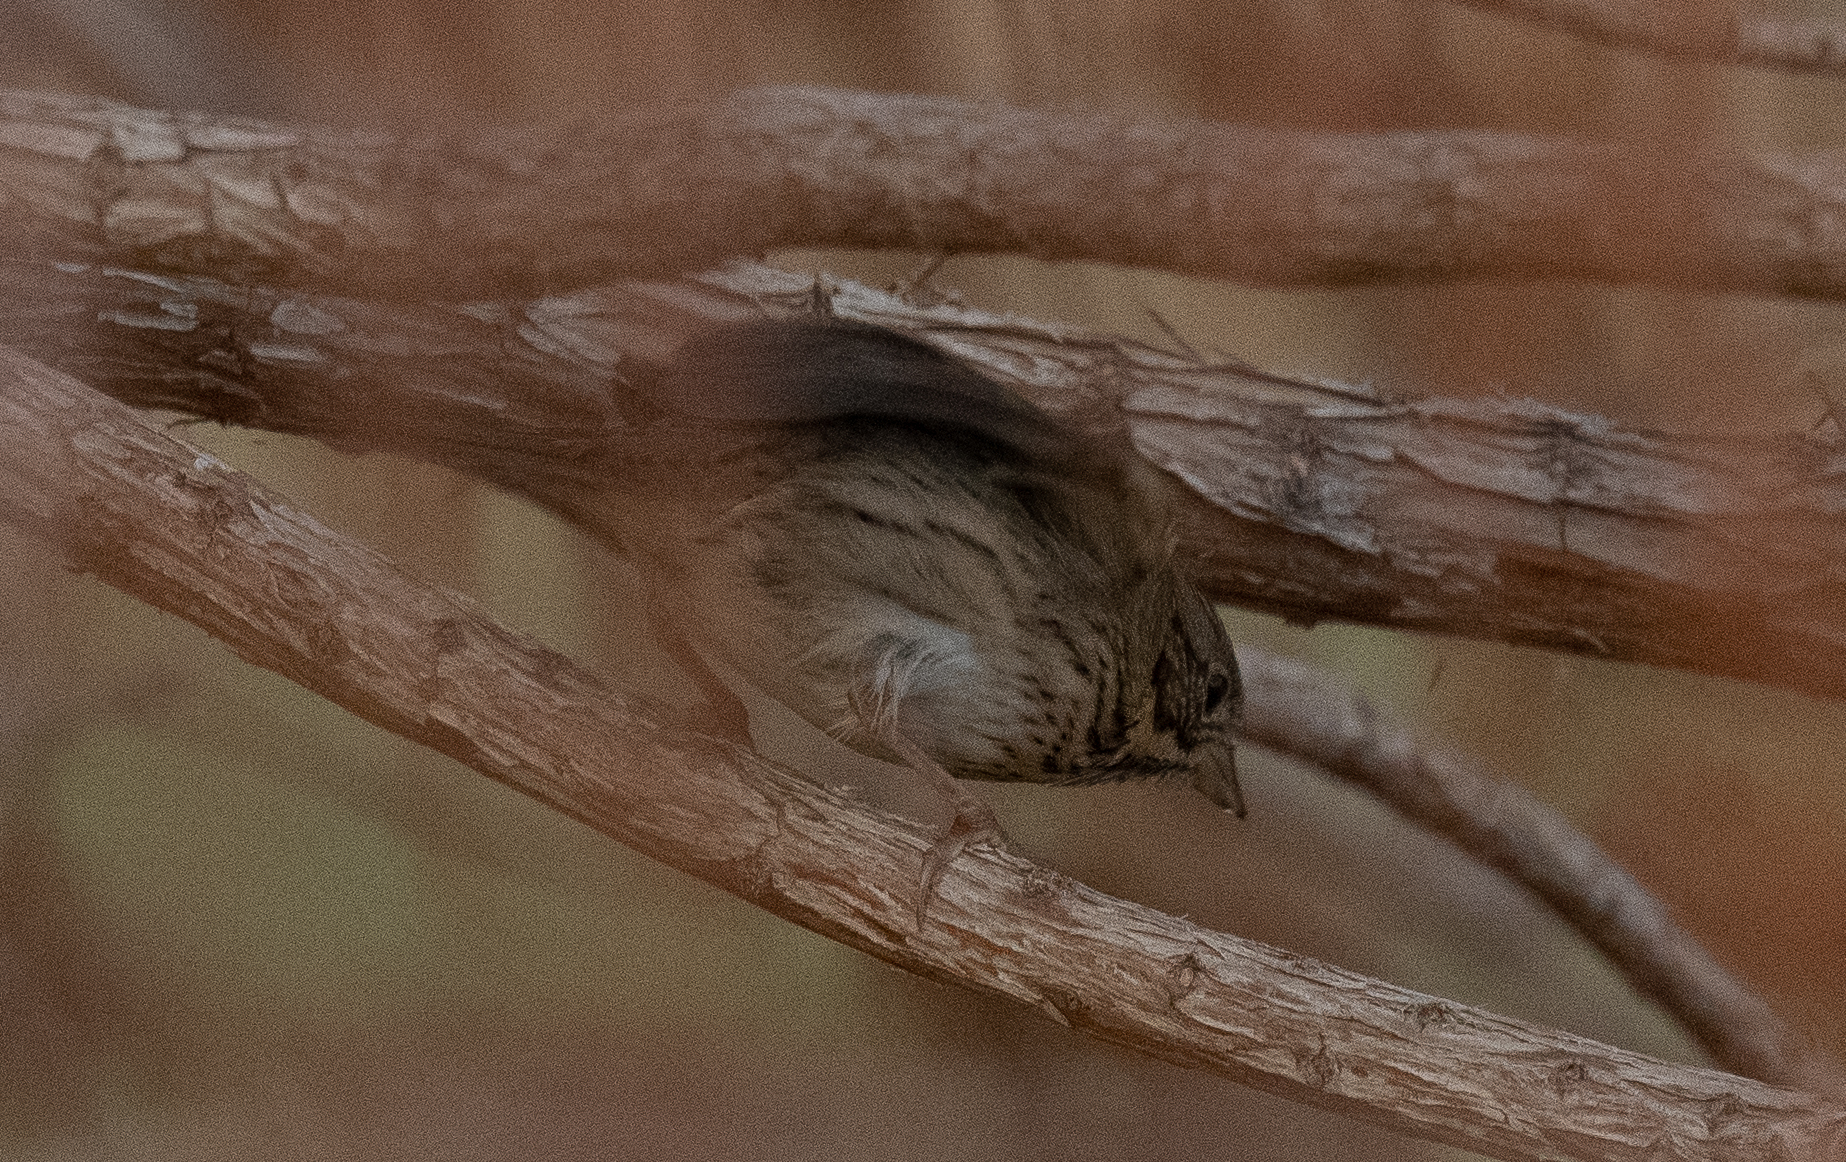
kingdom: Animalia
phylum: Chordata
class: Aves
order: Passeriformes
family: Passerellidae
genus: Melospiza
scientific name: Melospiza lincolnii
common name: Lincoln's sparrow
